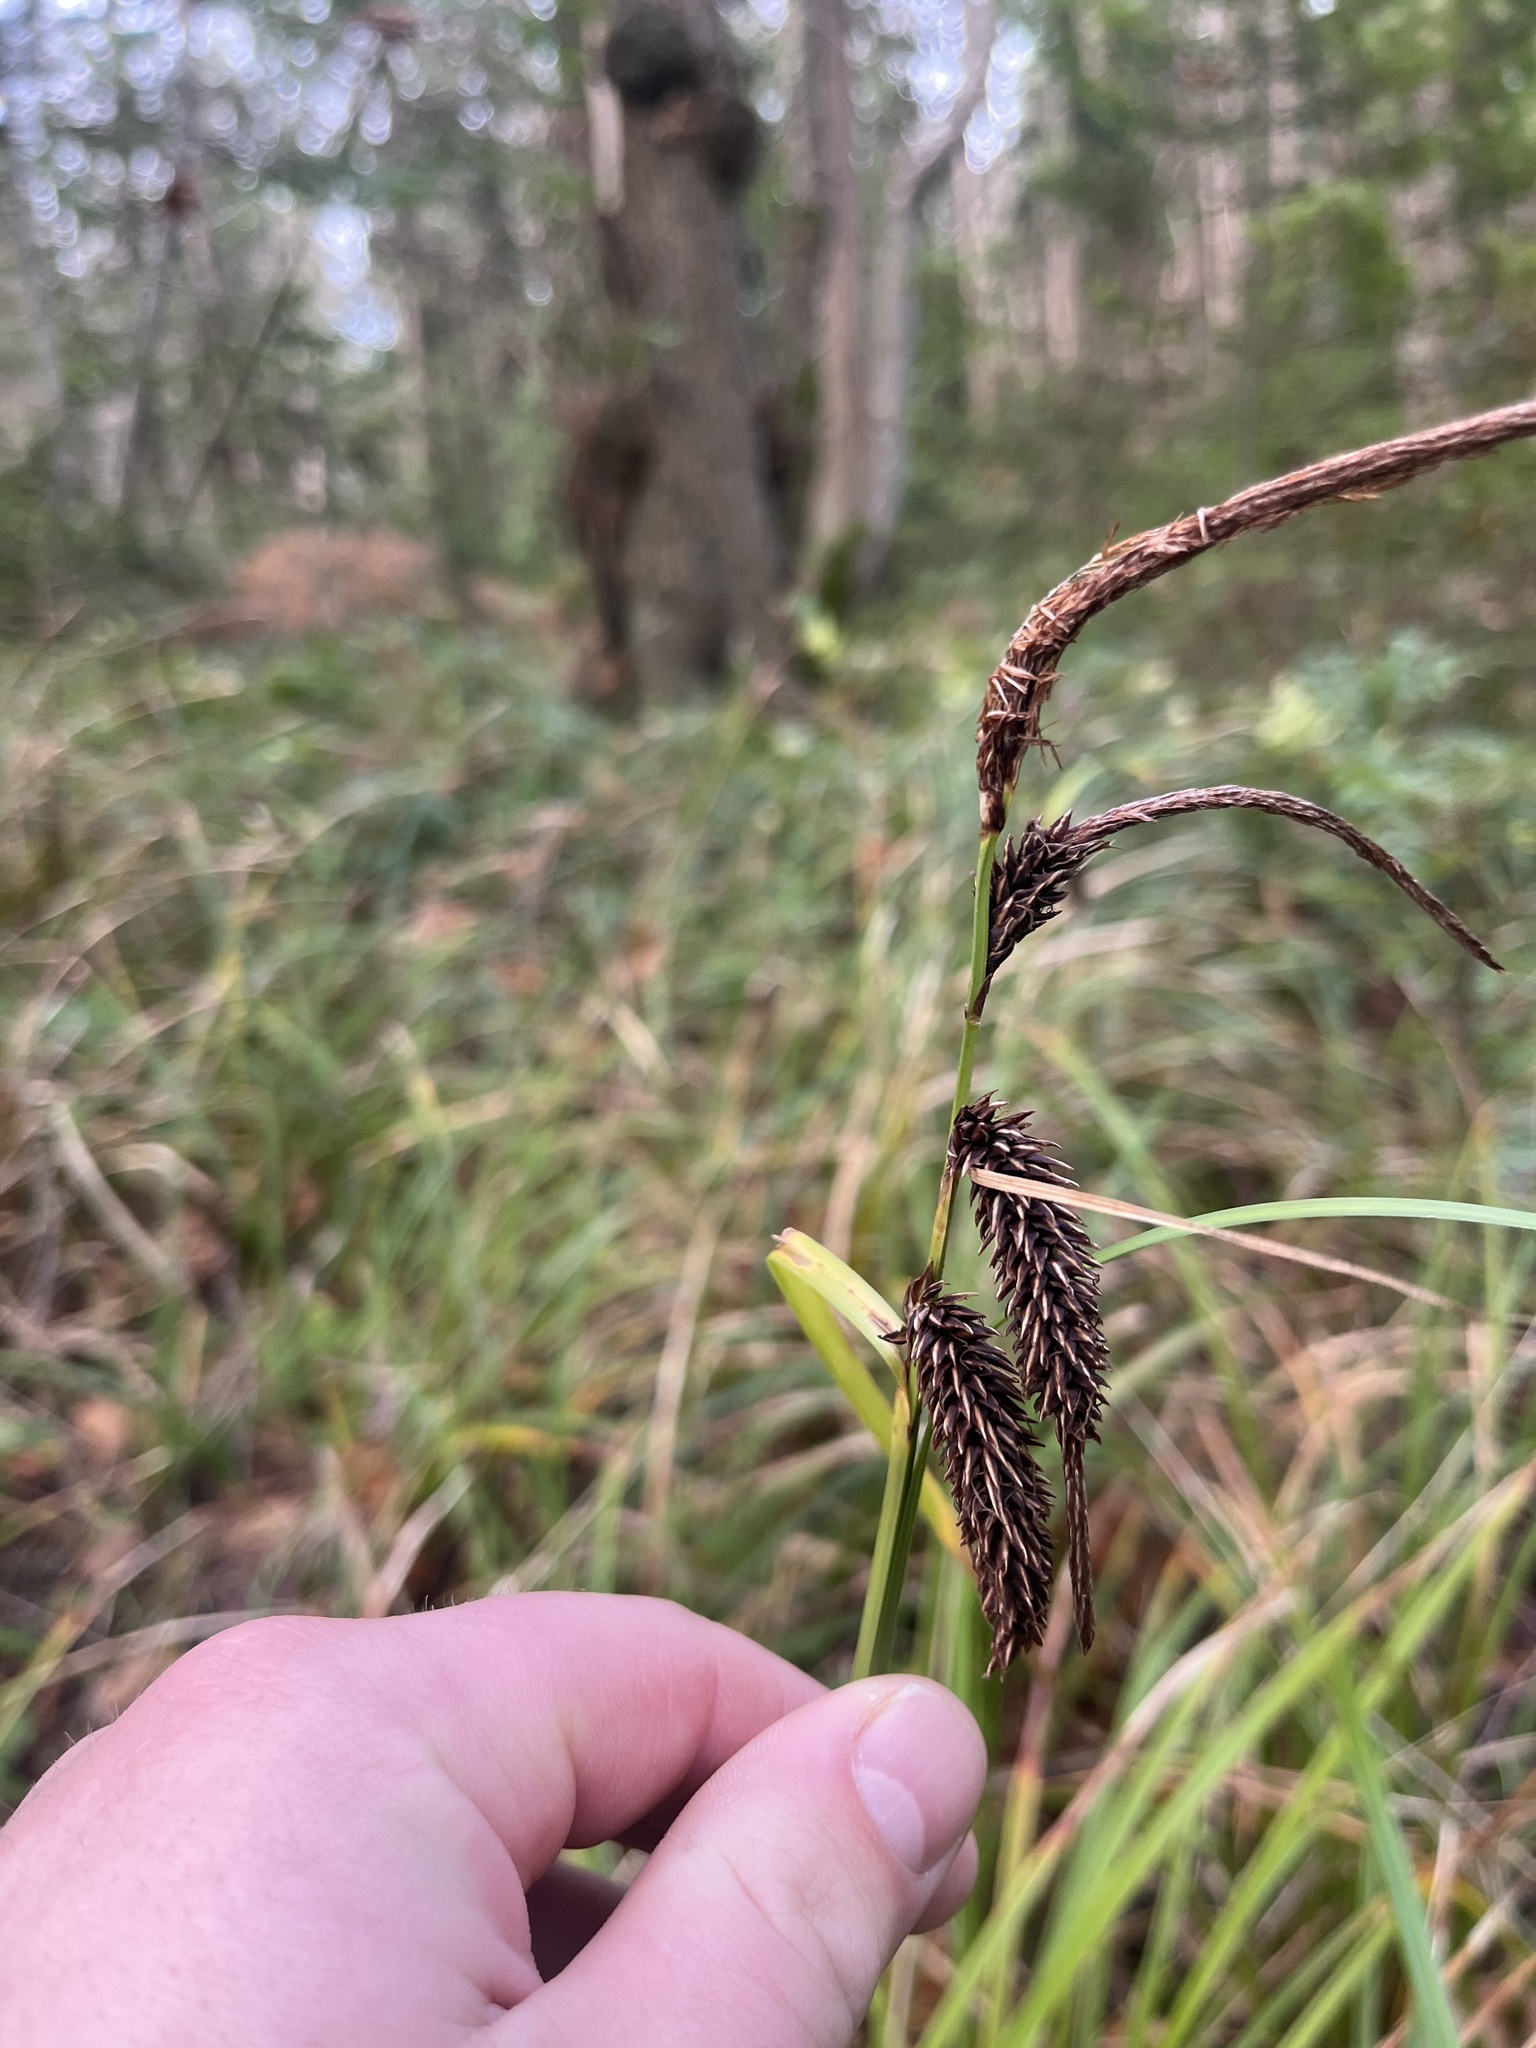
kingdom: Plantae
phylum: Tracheophyta
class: Liliopsida
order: Poales
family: Cyperaceae
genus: Carex
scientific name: Carex obnupta
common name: Slough sedge
